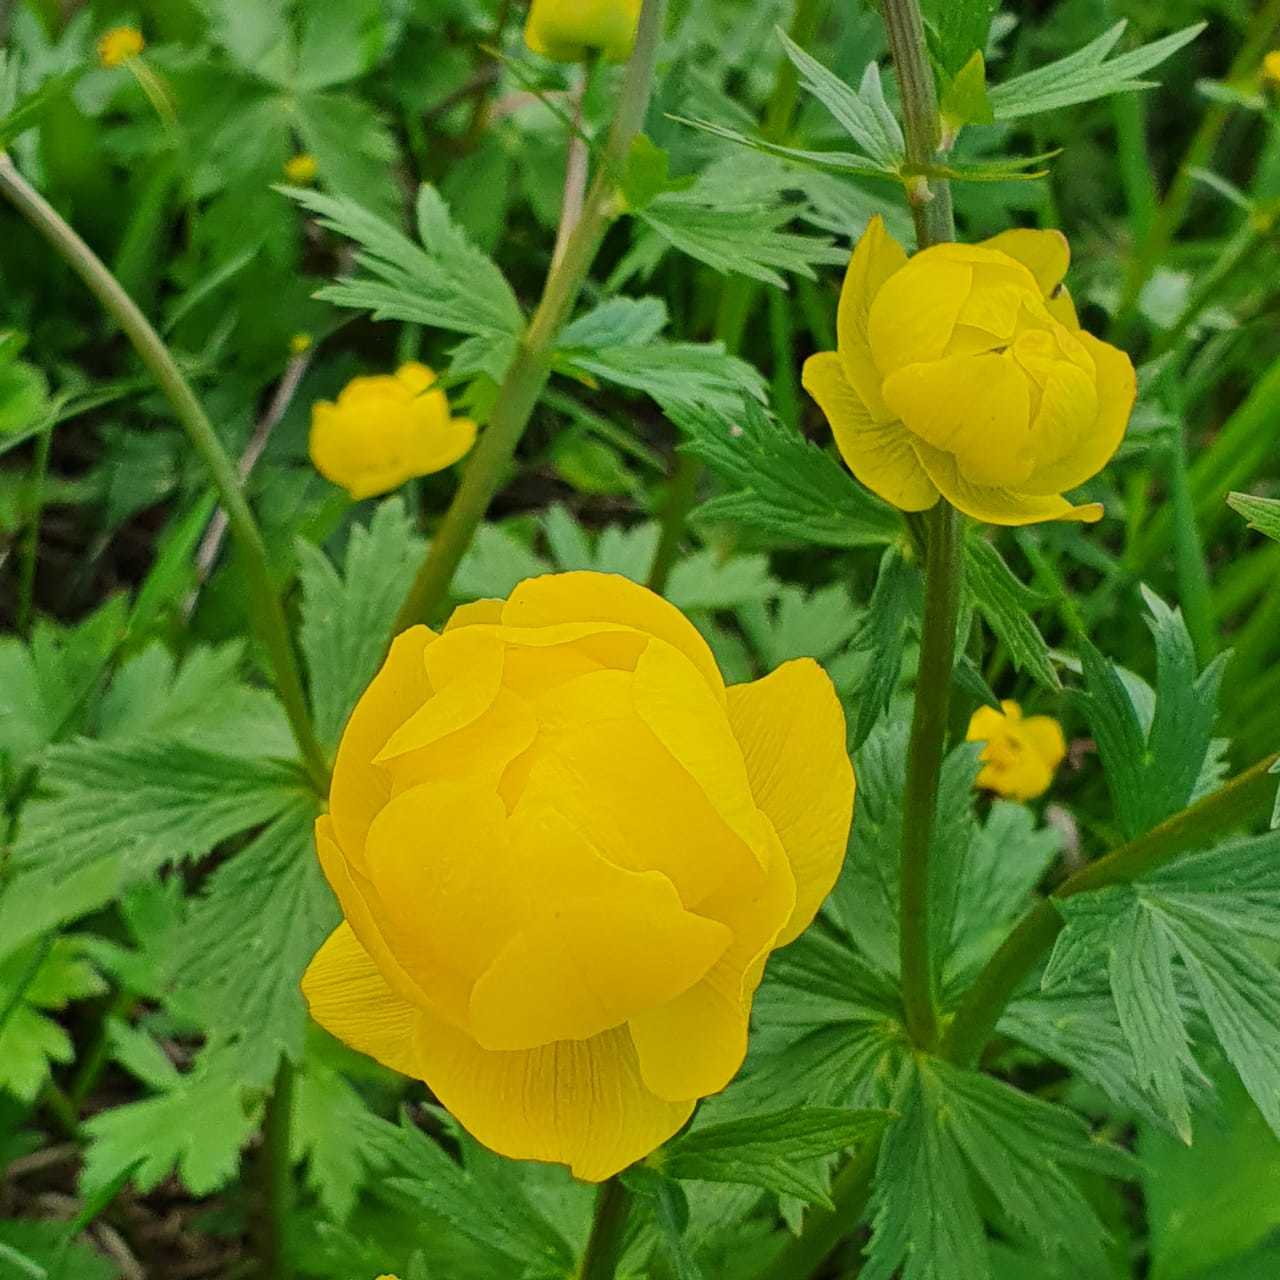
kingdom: Plantae
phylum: Tracheophyta
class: Magnoliopsida
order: Ranunculales
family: Ranunculaceae
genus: Trollius
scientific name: Trollius europaeus
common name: European globeflower
